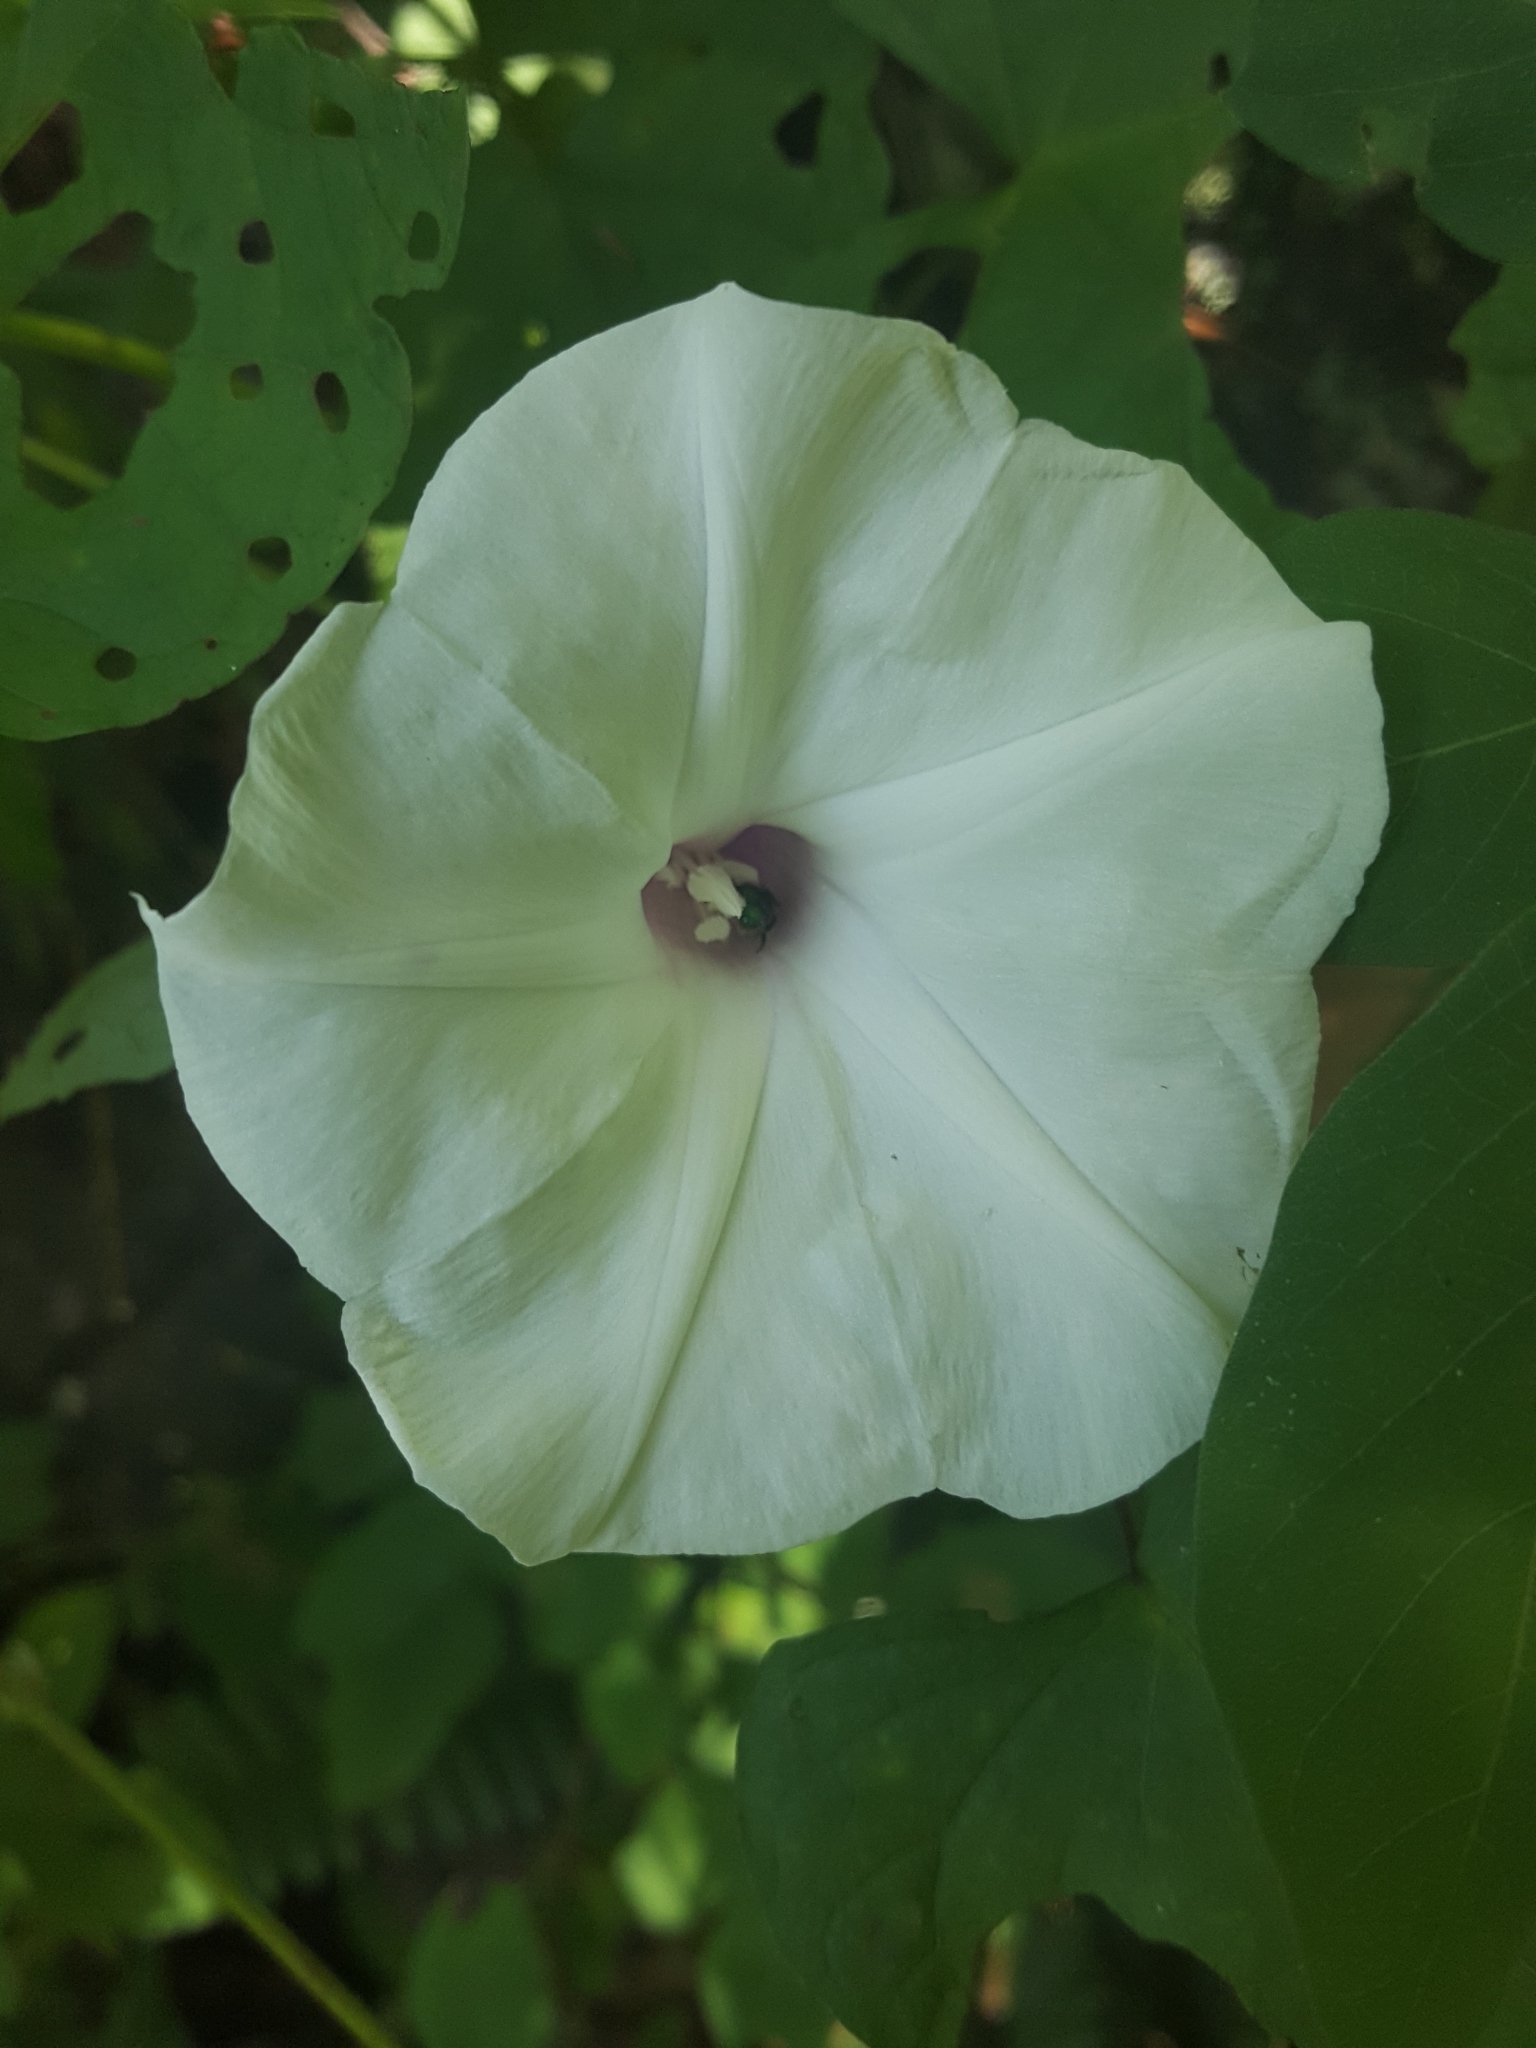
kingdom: Plantae
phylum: Tracheophyta
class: Magnoliopsida
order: Solanales
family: Convolvulaceae
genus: Ipomoea
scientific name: Ipomoea pandurata
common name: Man-of-the-earth
